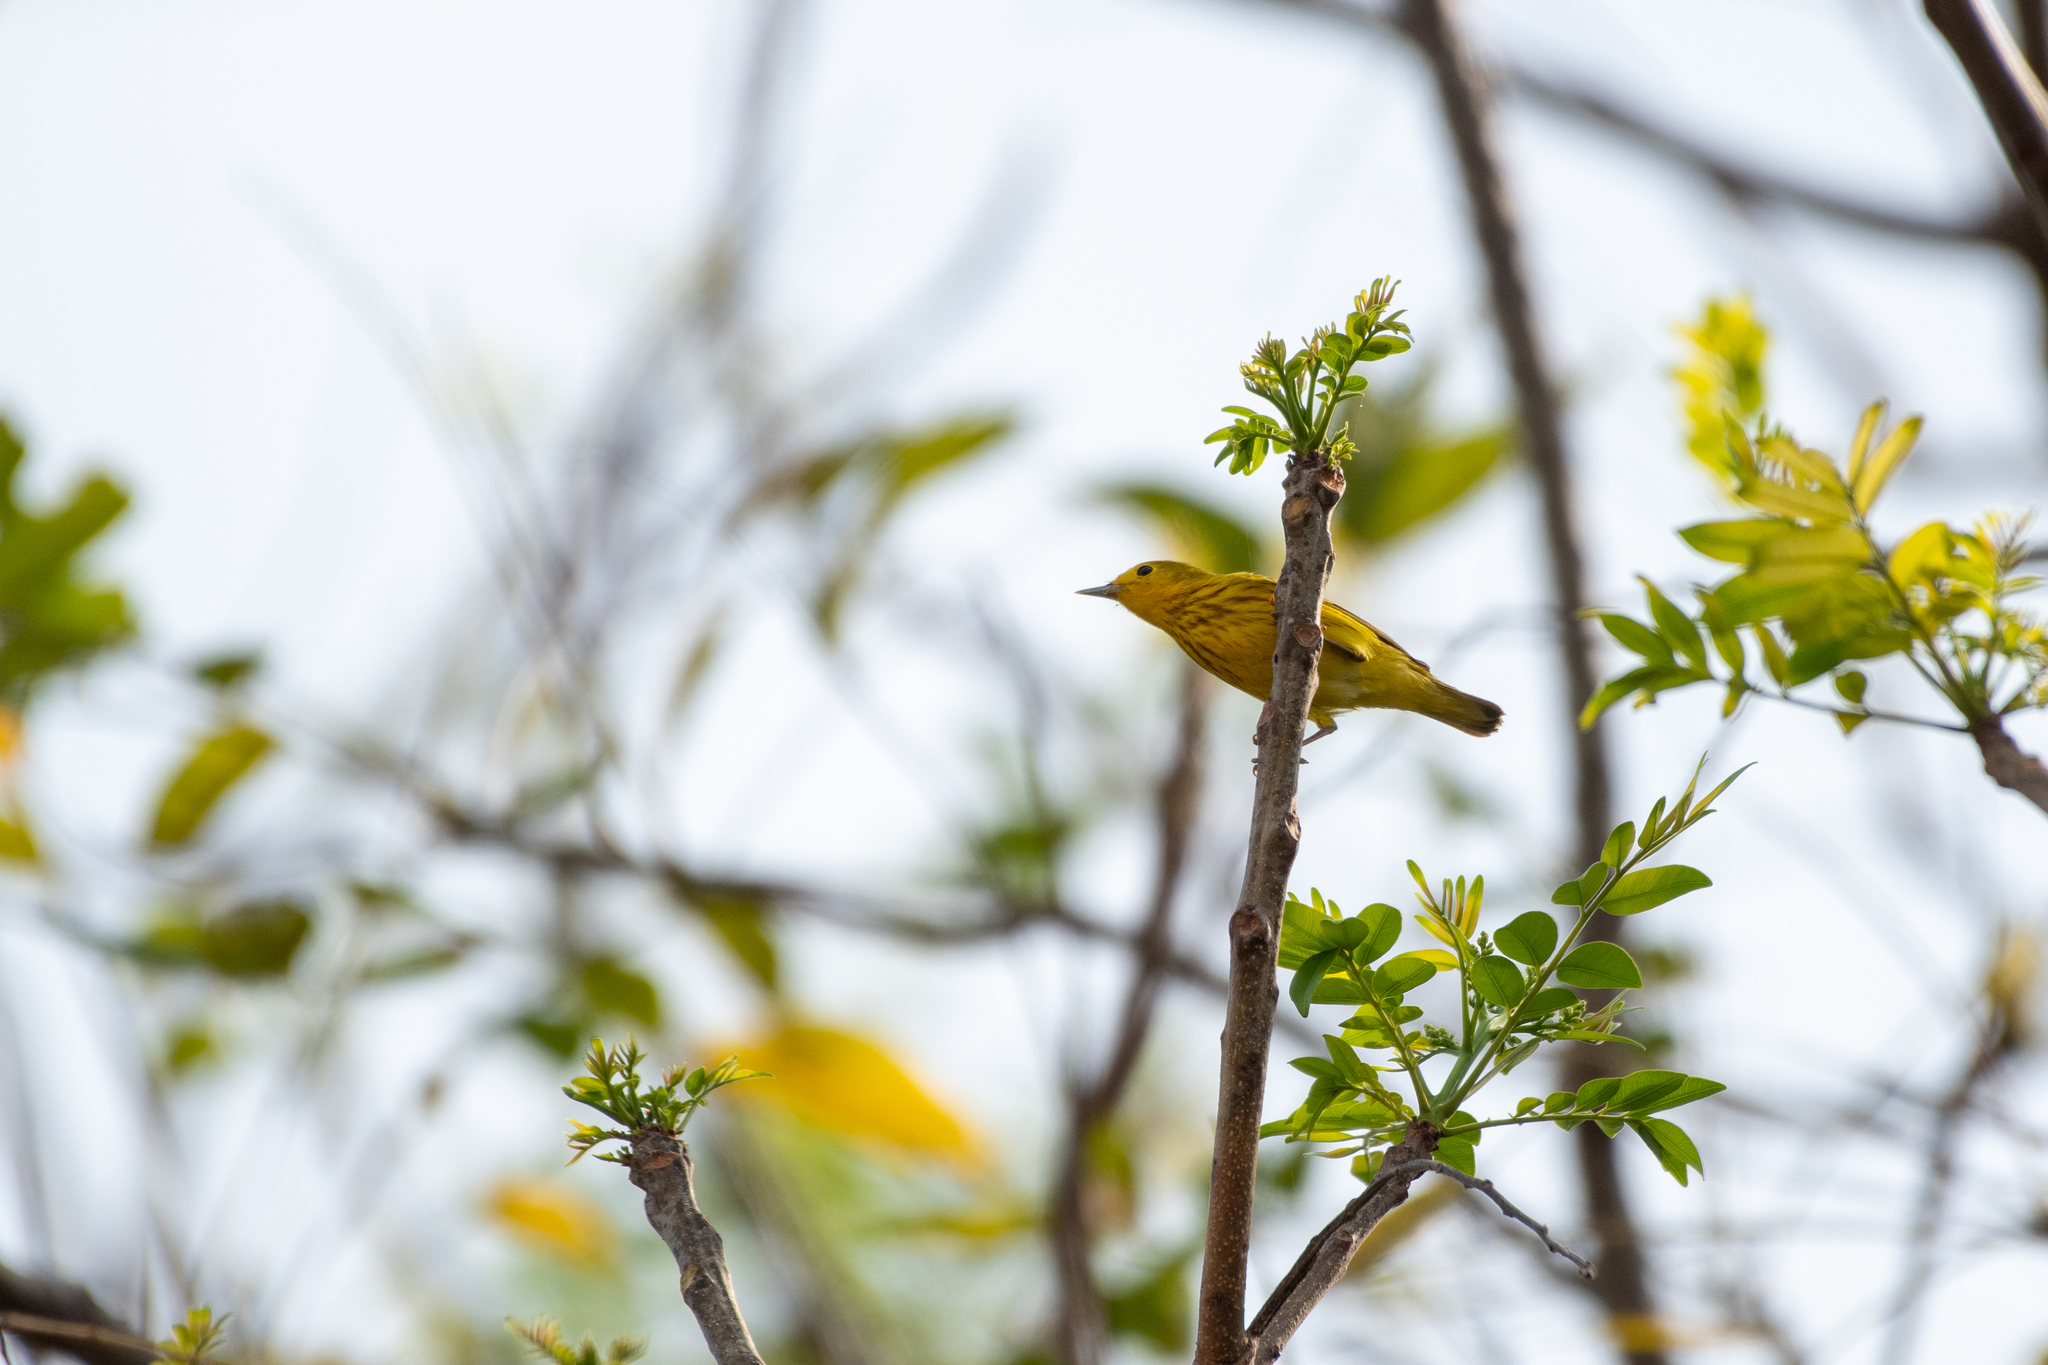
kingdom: Animalia
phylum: Chordata
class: Aves
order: Passeriformes
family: Parulidae
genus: Setophaga
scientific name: Setophaga petechia
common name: Yellow warbler
